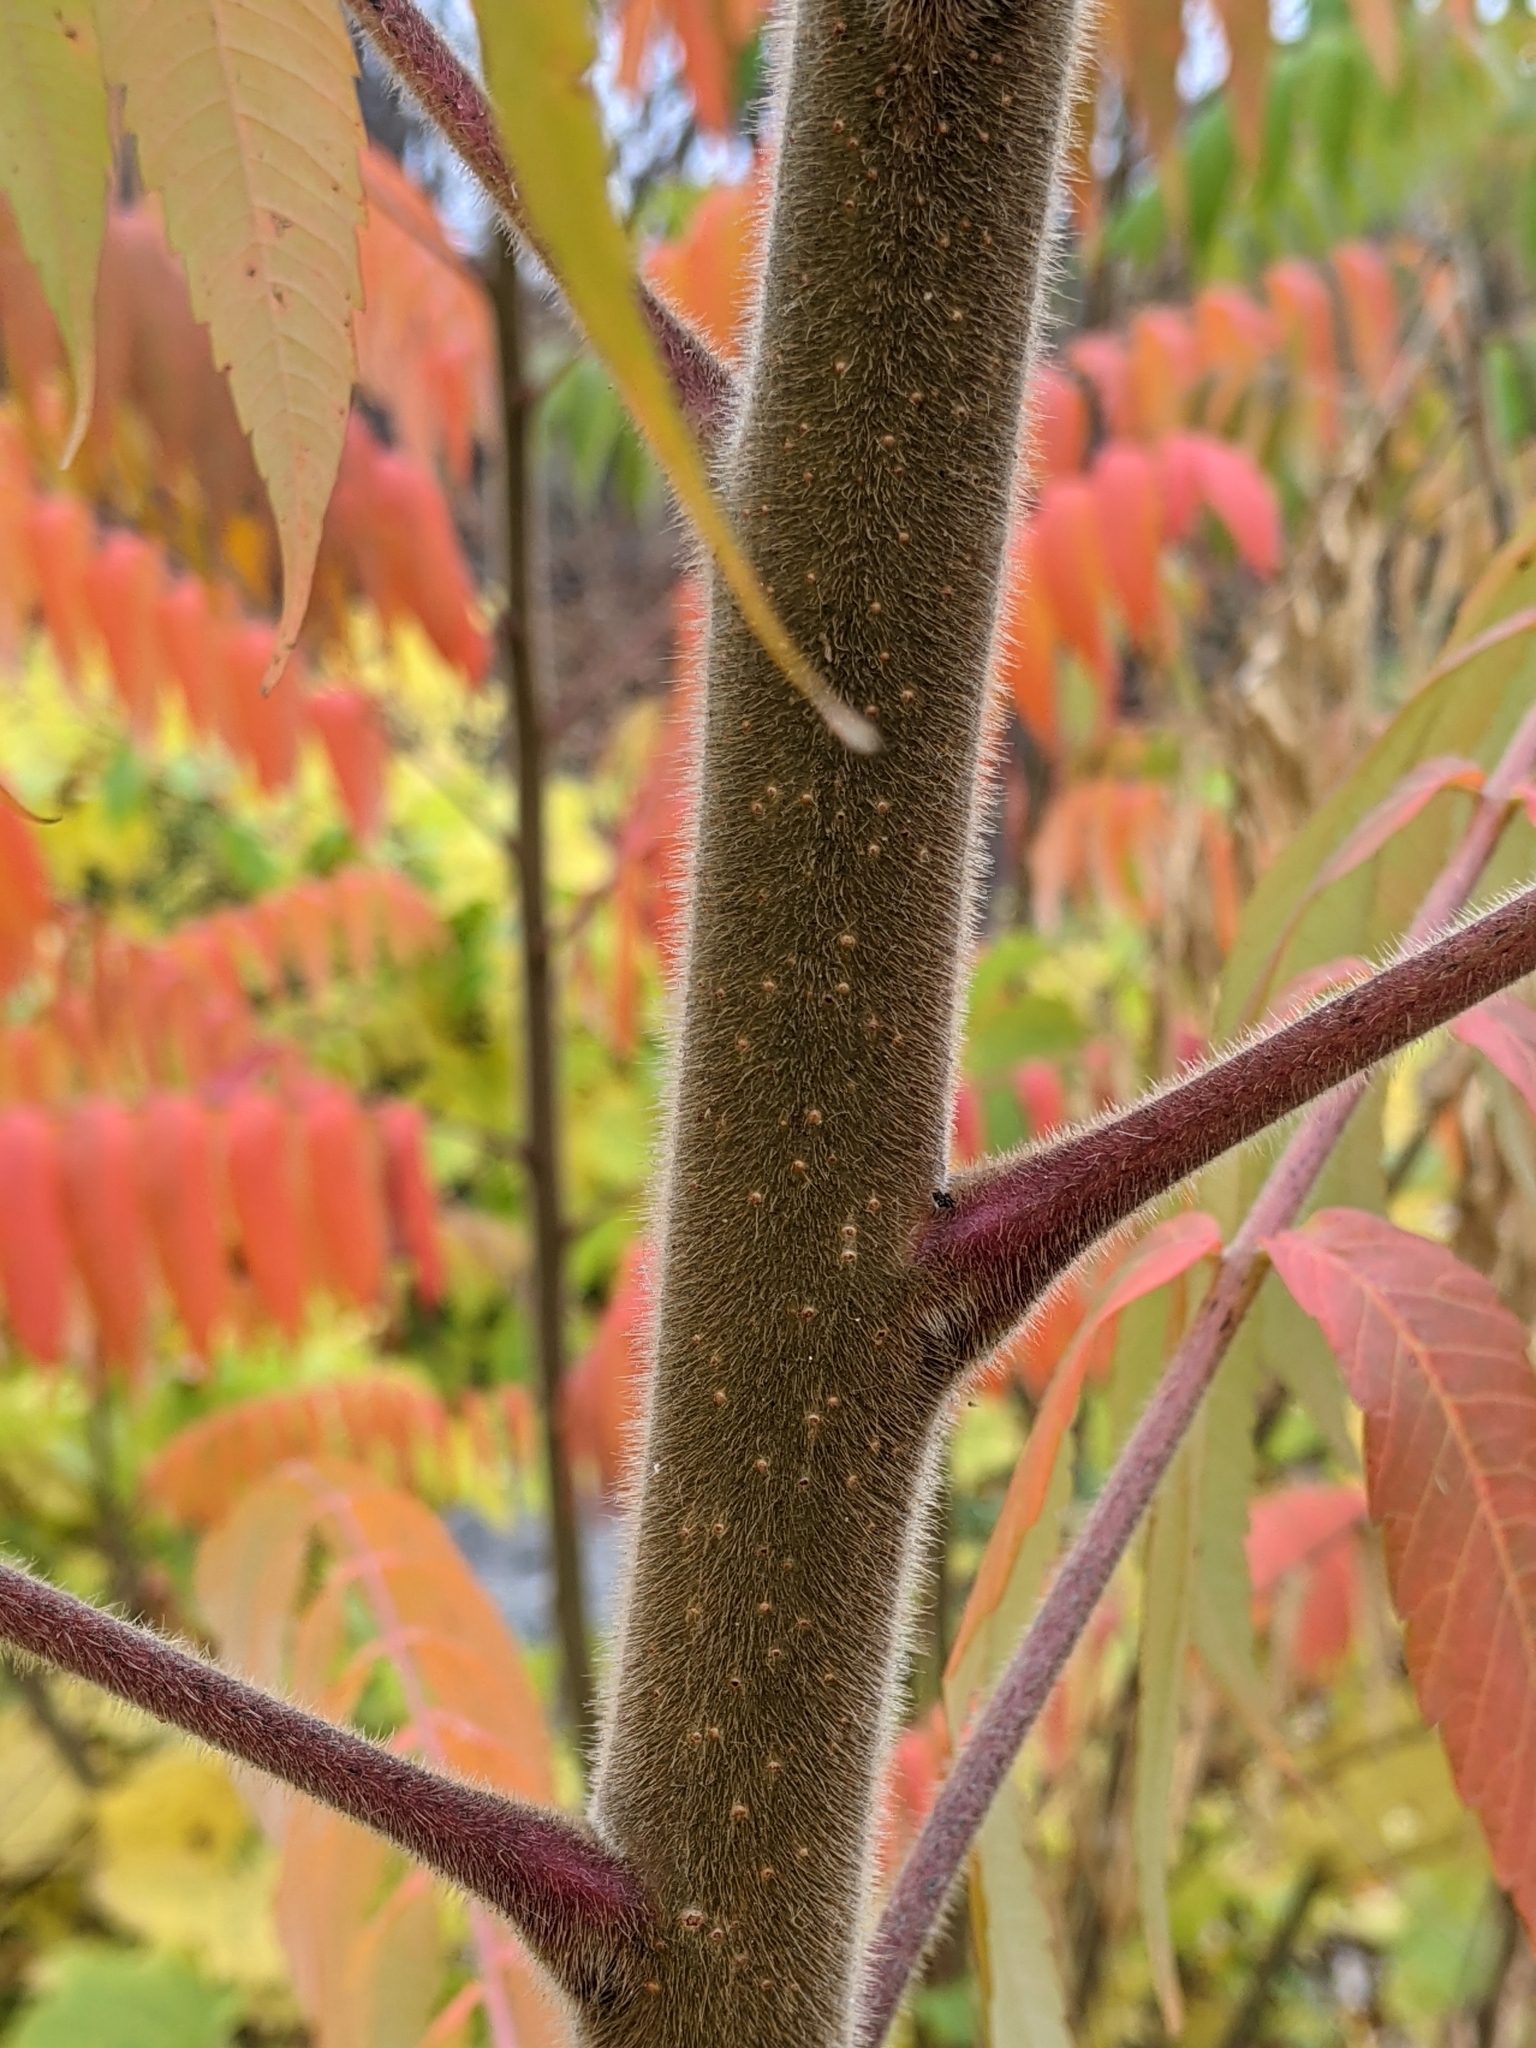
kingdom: Plantae
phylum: Tracheophyta
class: Magnoliopsida
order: Sapindales
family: Anacardiaceae
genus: Rhus
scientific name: Rhus typhina
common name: Staghorn sumac
